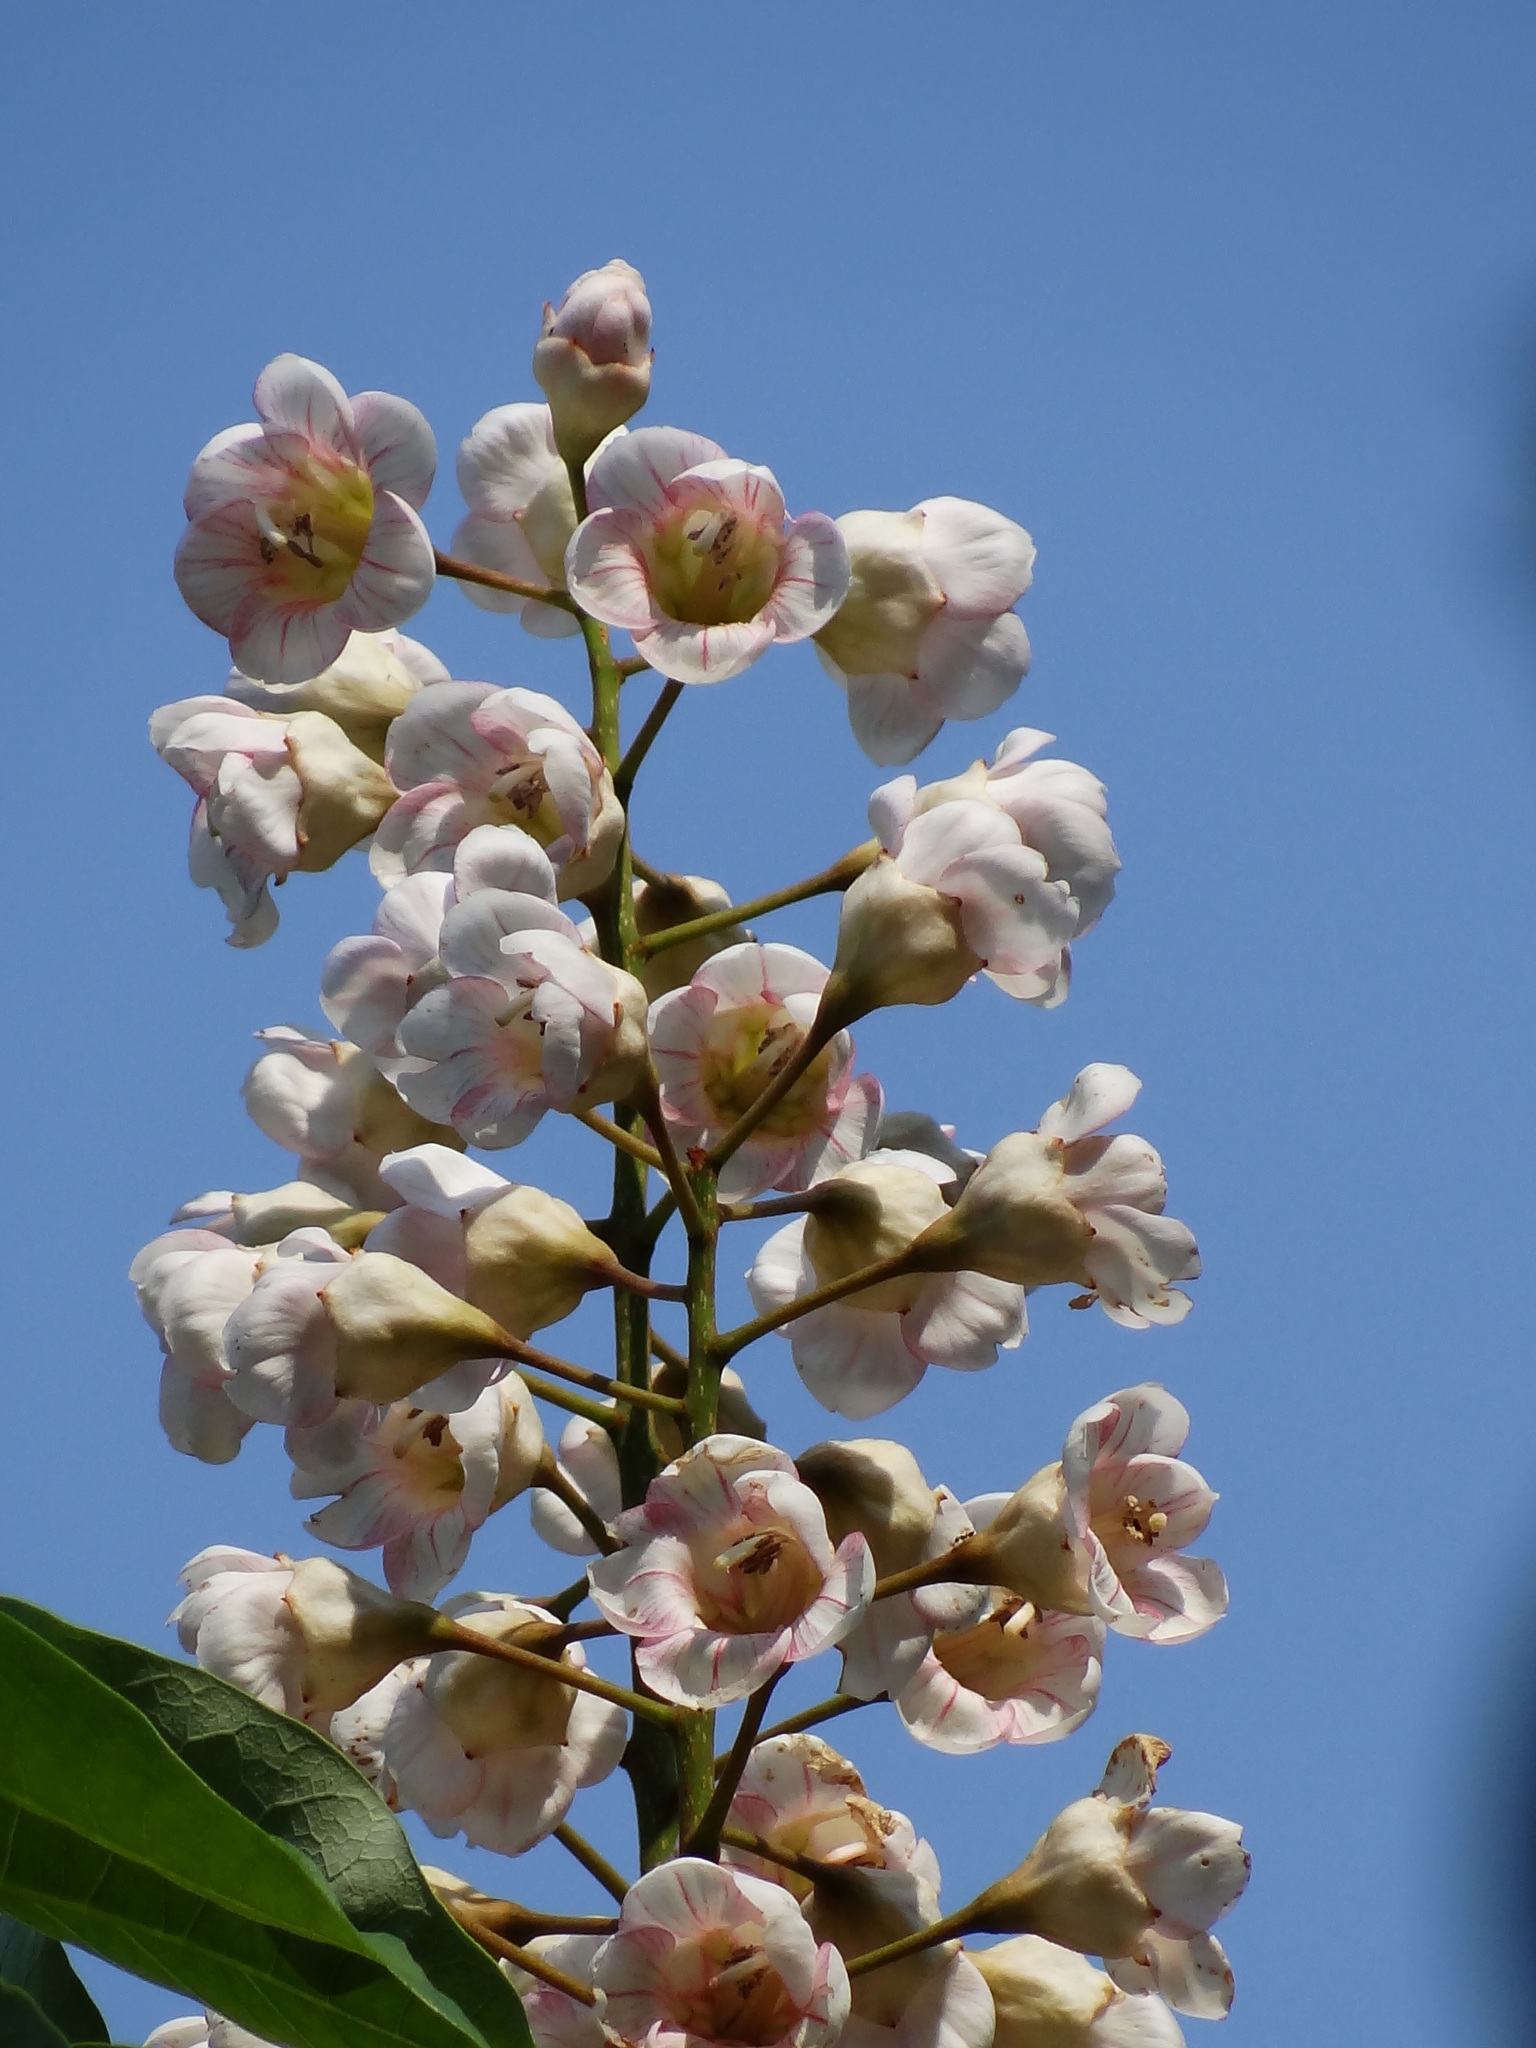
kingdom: Plantae
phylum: Tracheophyta
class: Magnoliopsida
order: Brassicales
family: Akaniaceae
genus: Bretschneidera
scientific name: Bretschneidera sinensis
